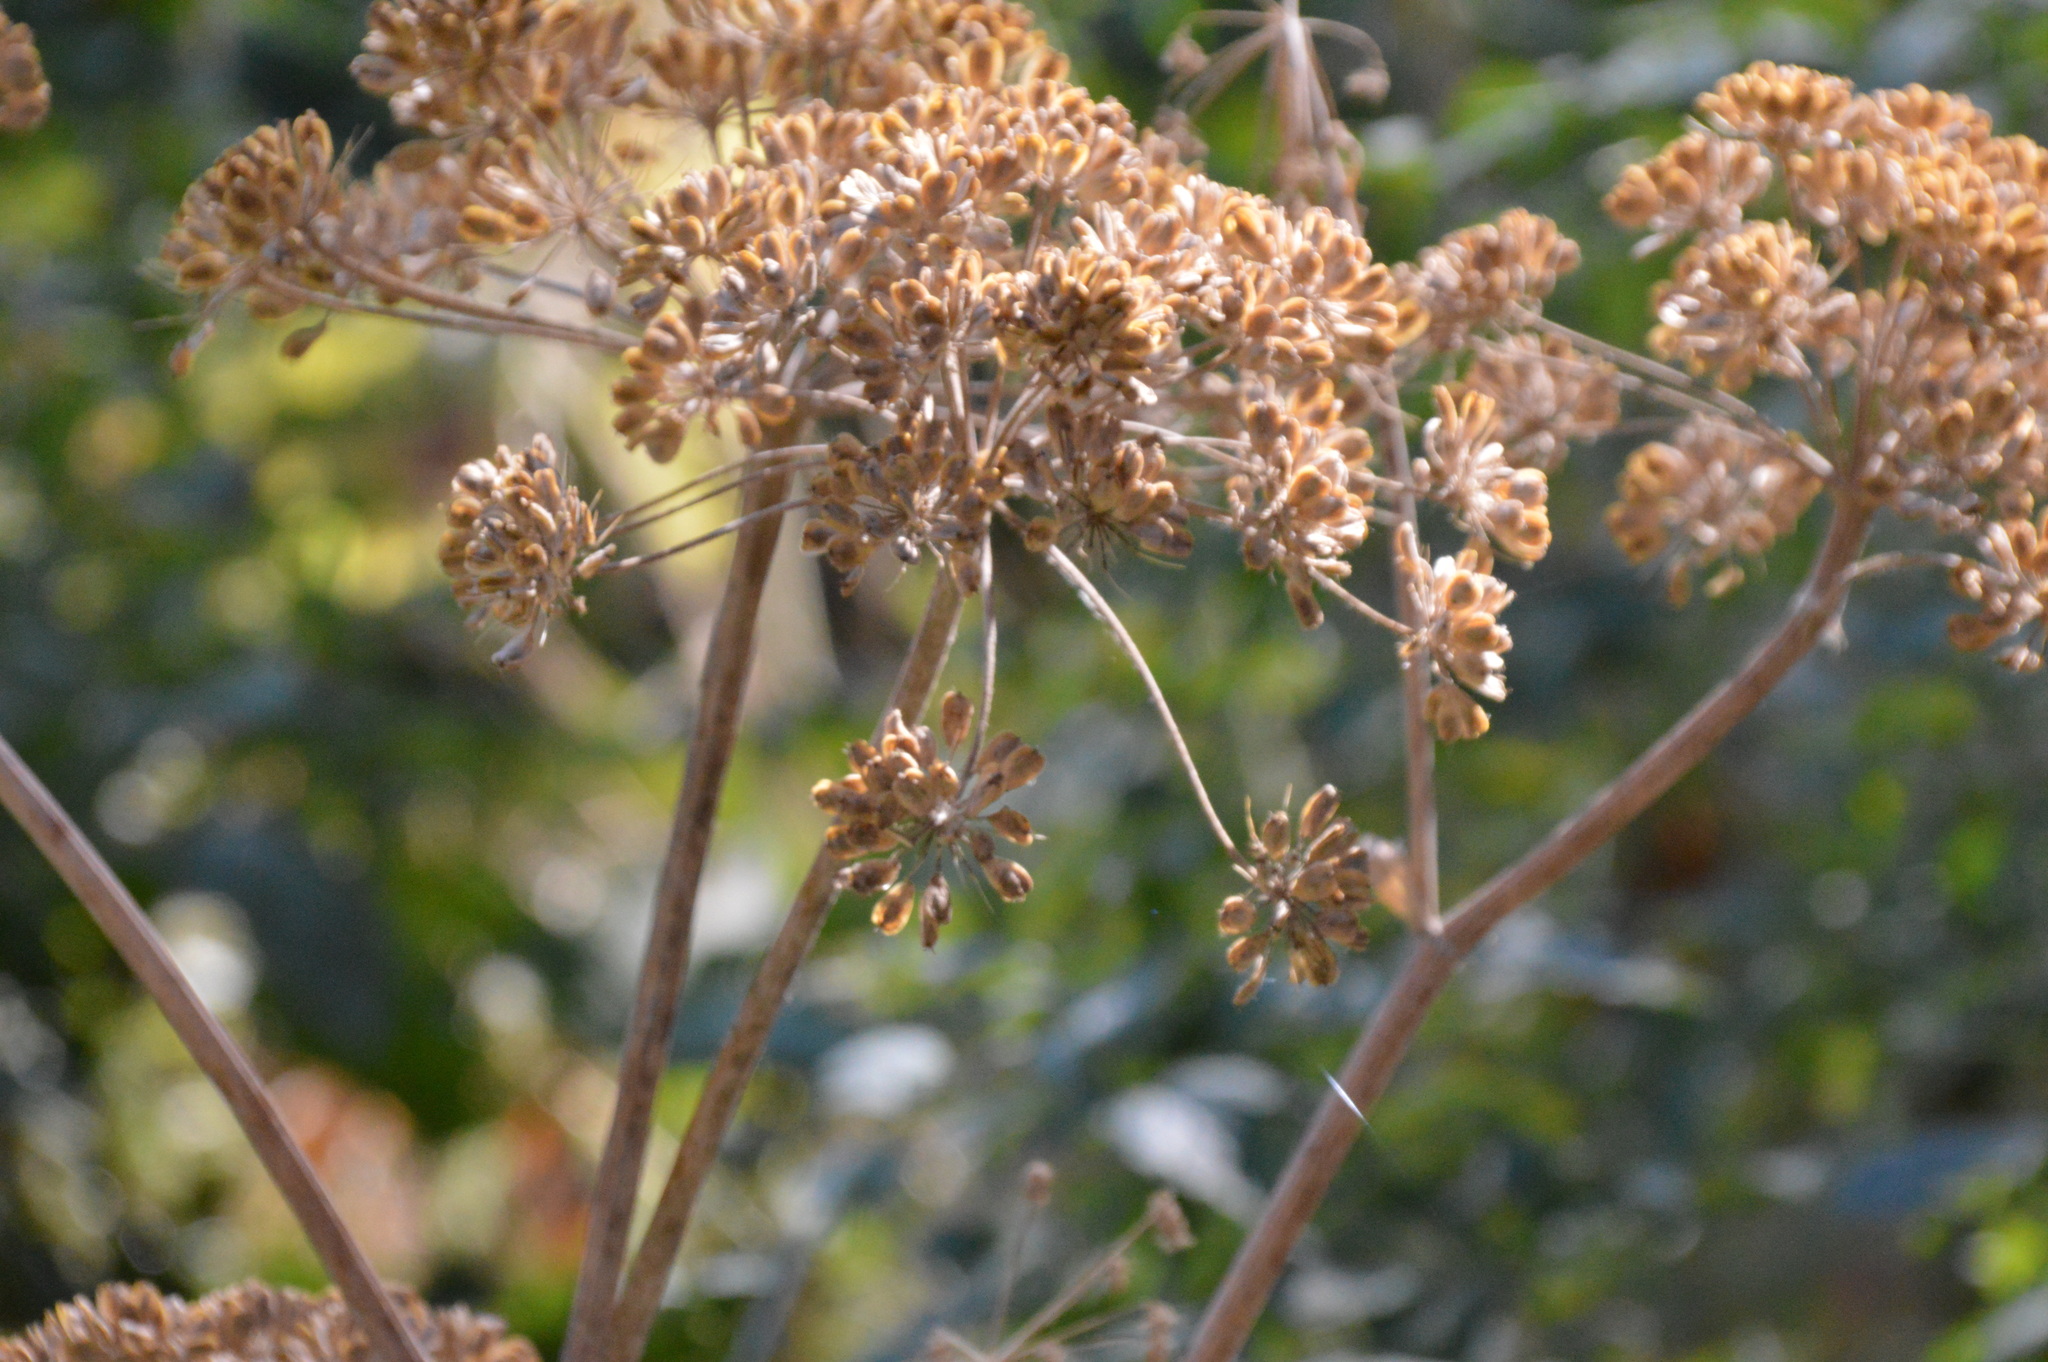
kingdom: Plantae
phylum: Tracheophyta
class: Magnoliopsida
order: Apiales
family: Apiaceae
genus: Heracleum
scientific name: Heracleum maximum
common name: American cow parsnip
